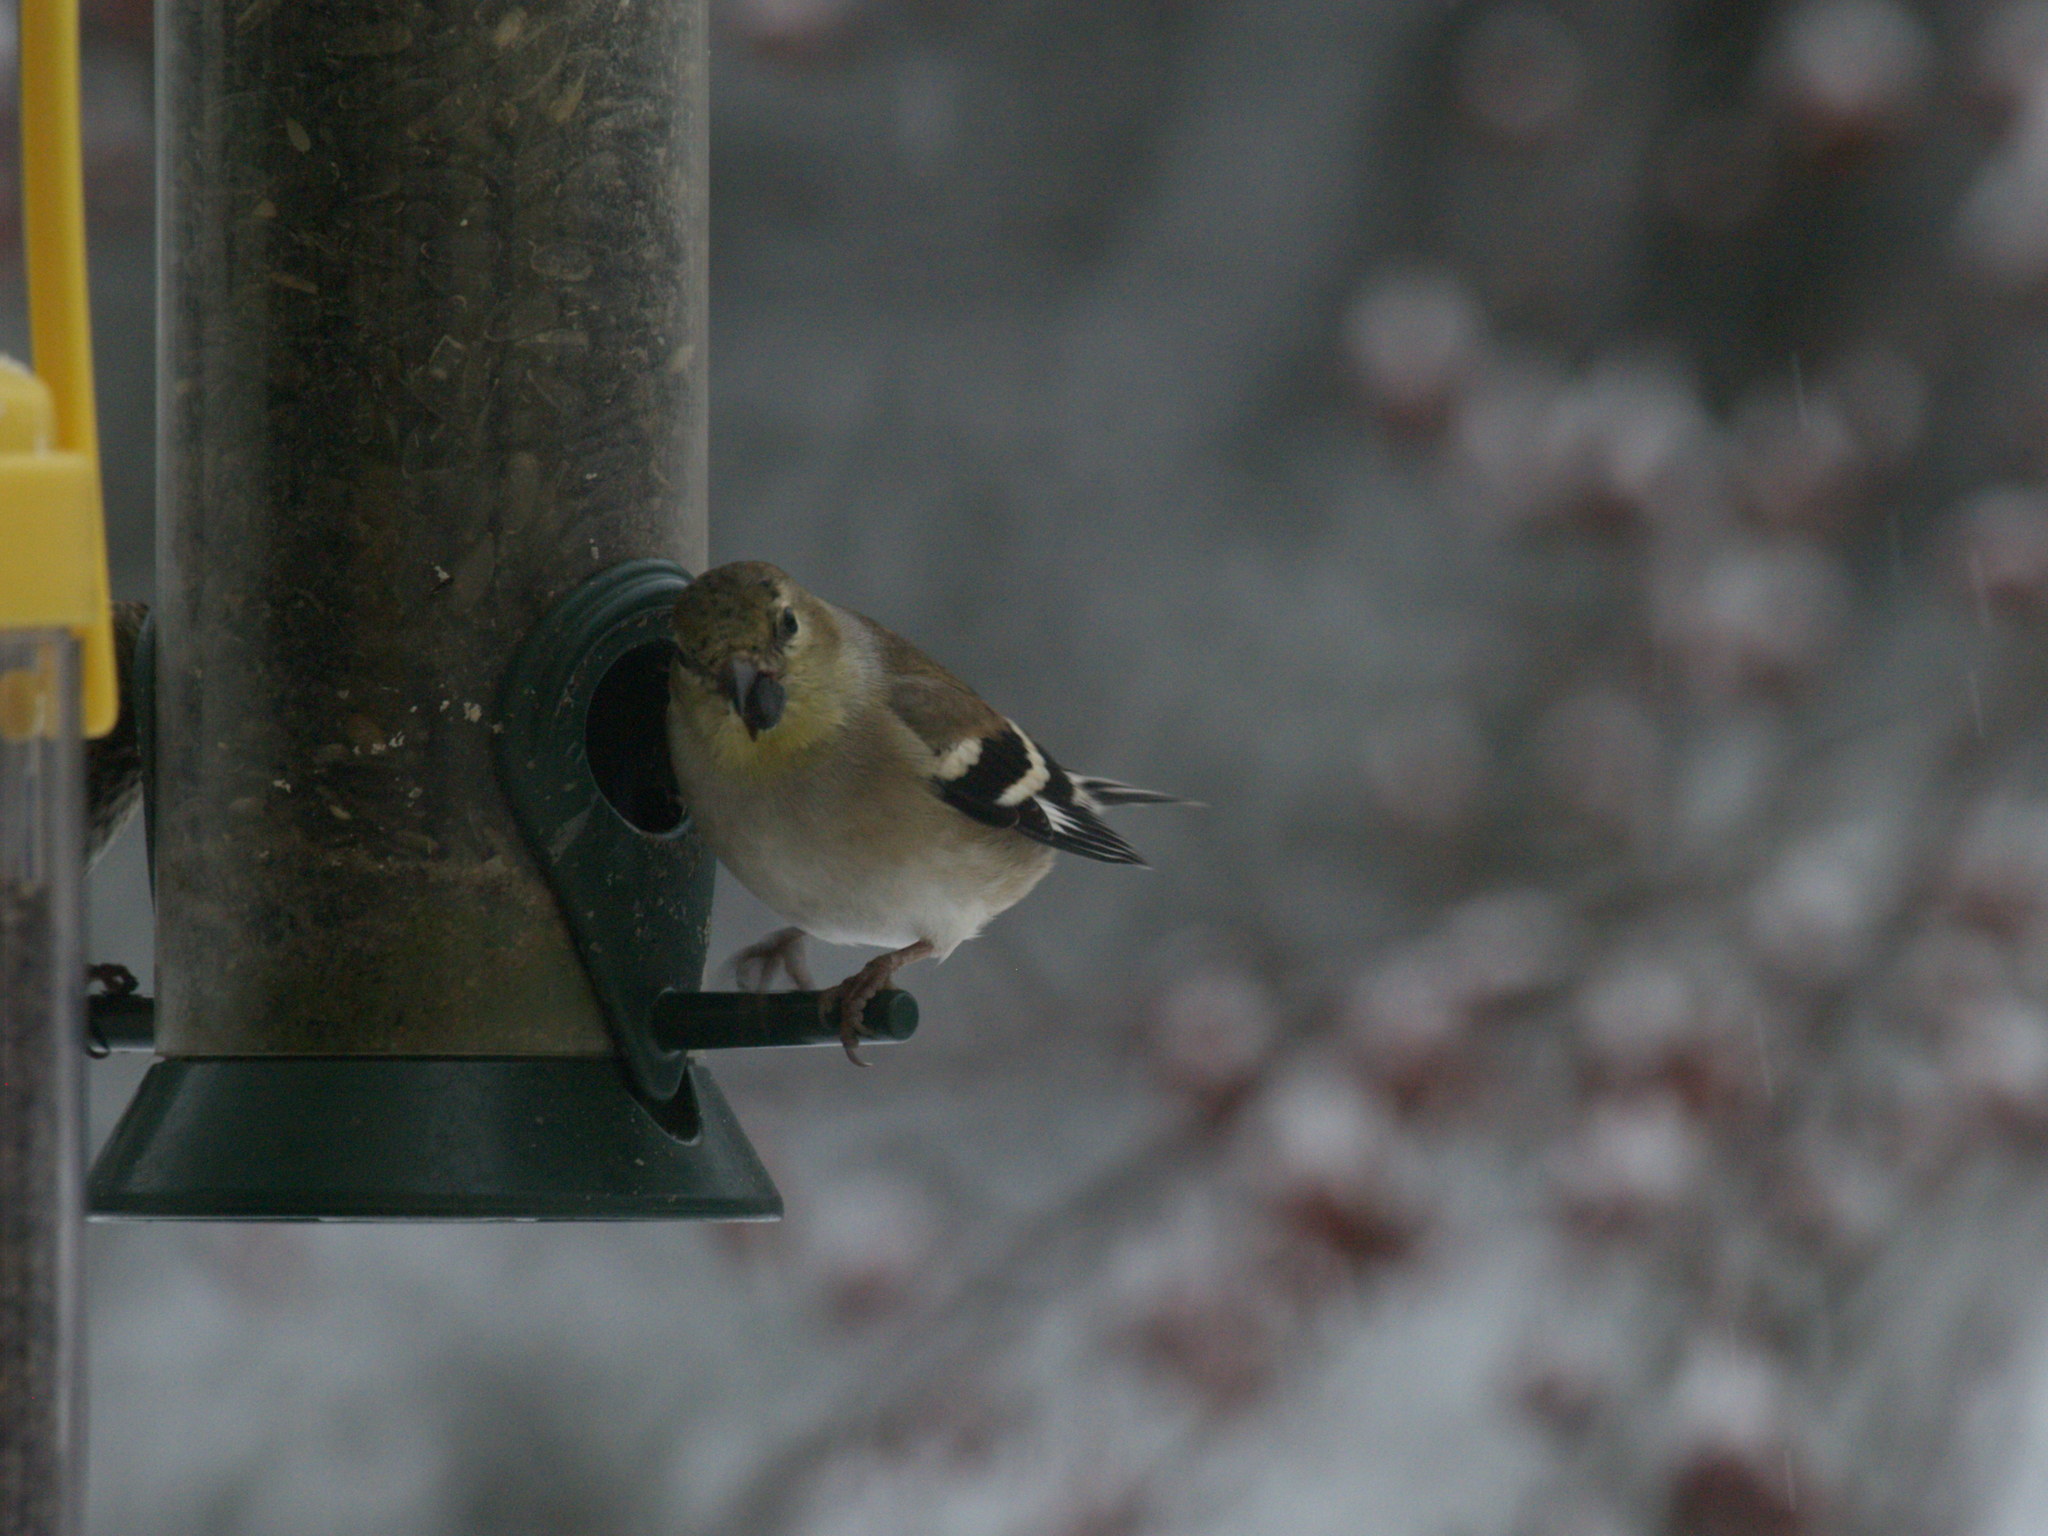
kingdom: Animalia
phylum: Chordata
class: Aves
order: Passeriformes
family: Fringillidae
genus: Spinus
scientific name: Spinus tristis
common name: American goldfinch
